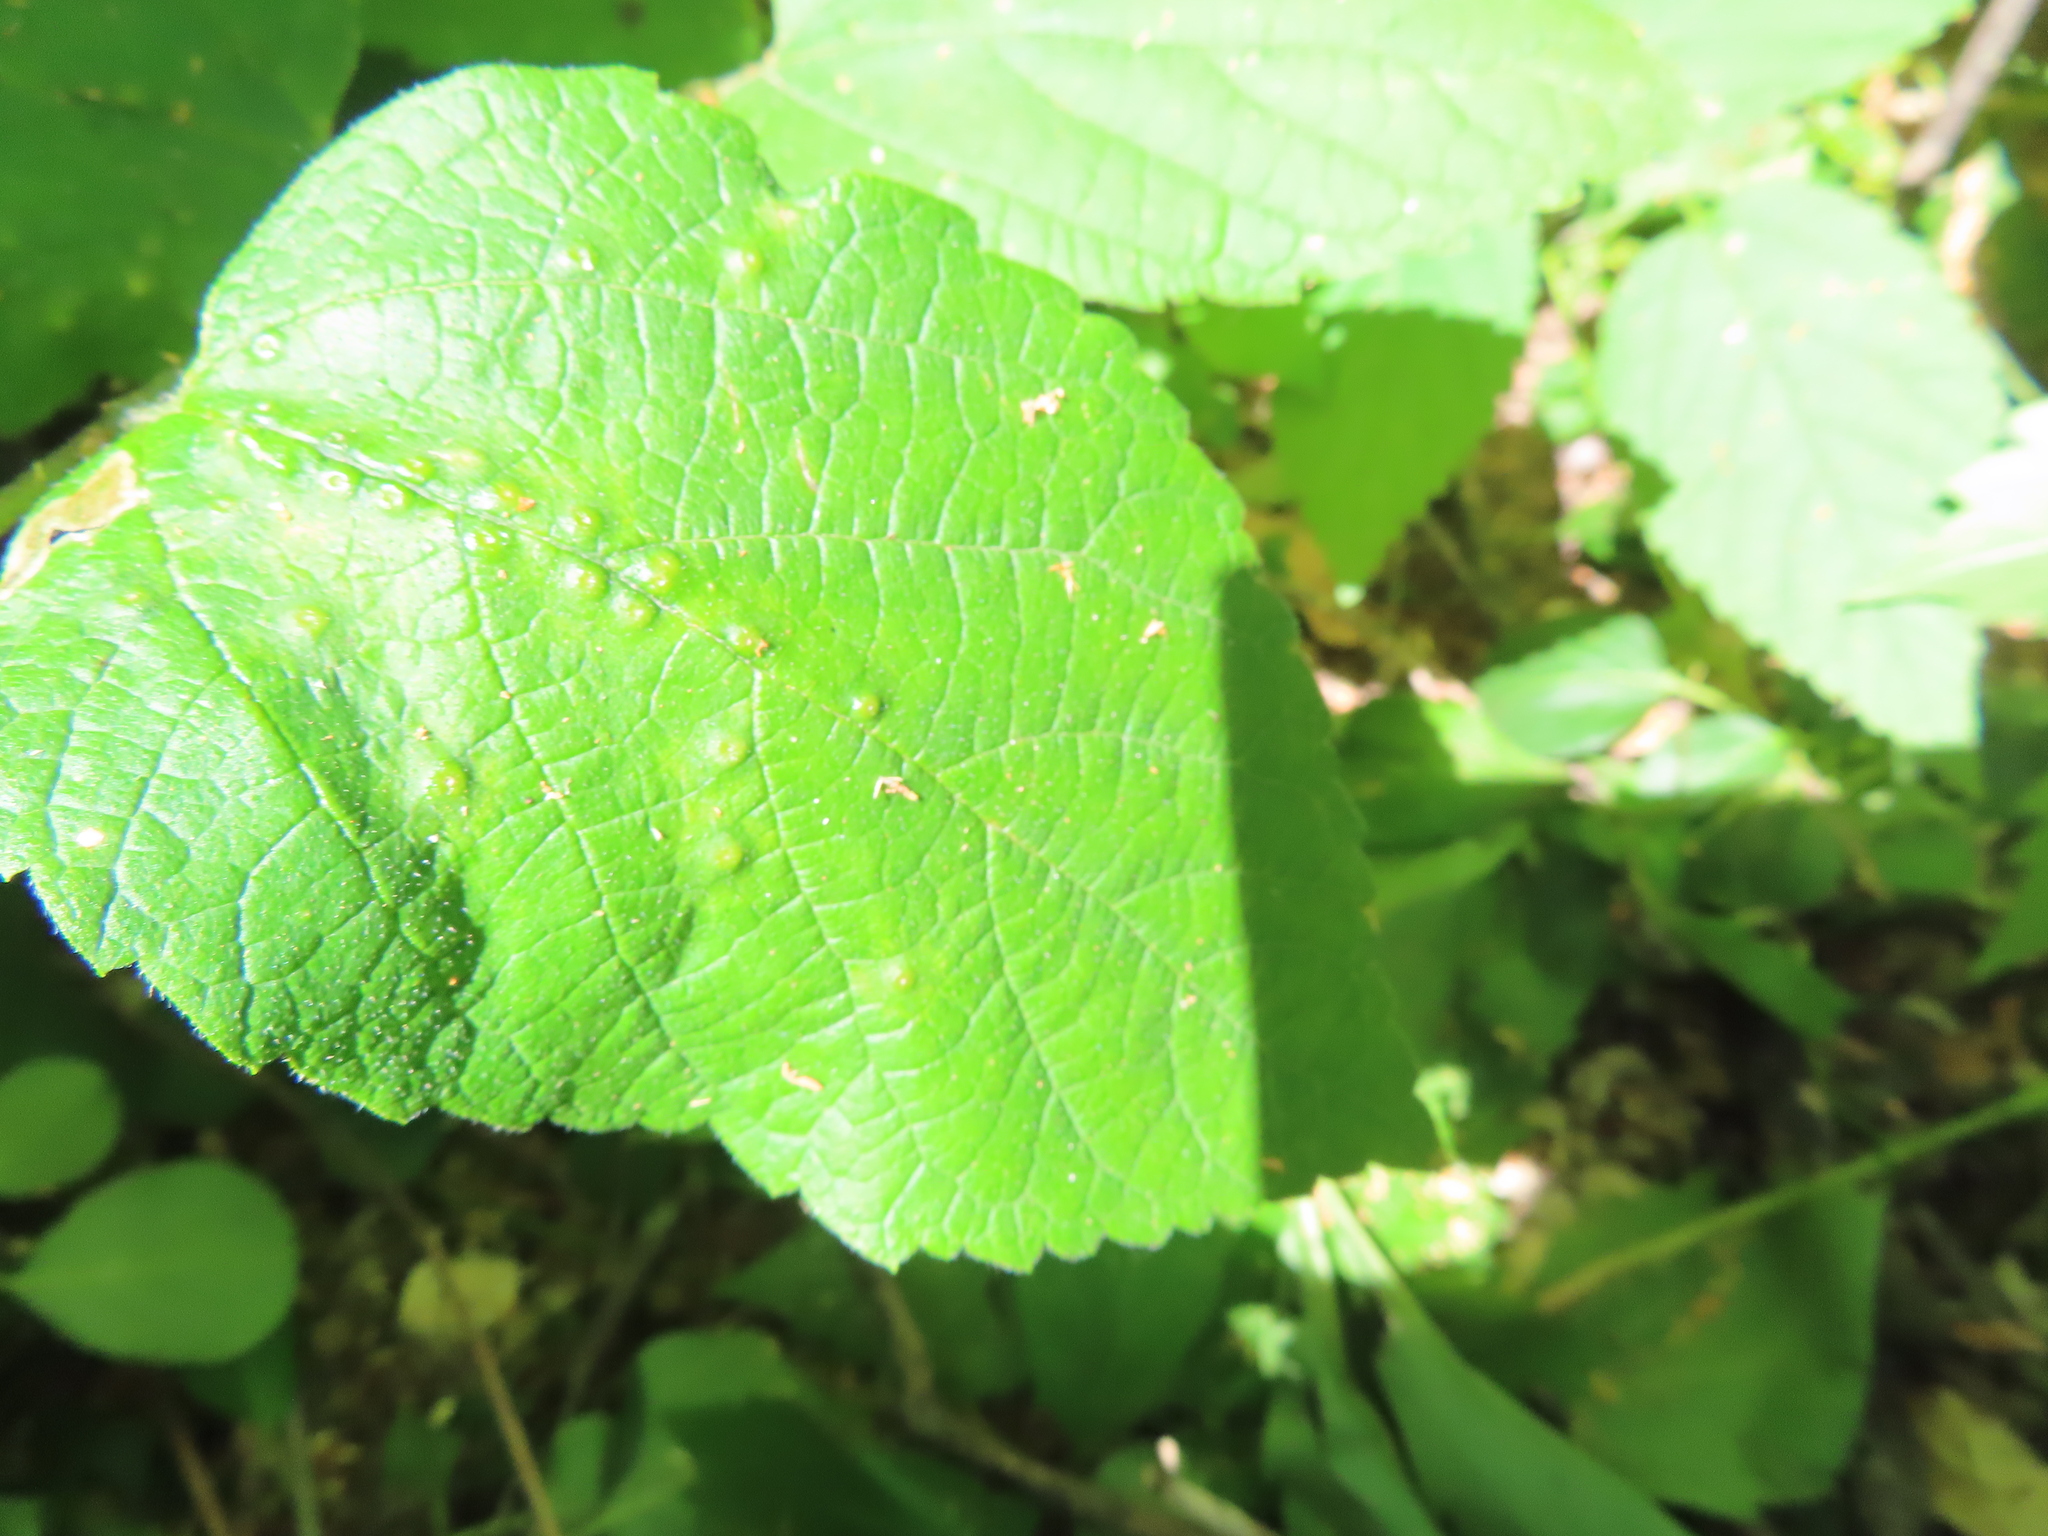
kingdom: Animalia
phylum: Arthropoda
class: Insecta
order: Hemiptera
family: Aphalaridae
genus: Pachypsylla
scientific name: Pachypsylla celtidisvesicula
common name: Hackberry blister gall psyllid
